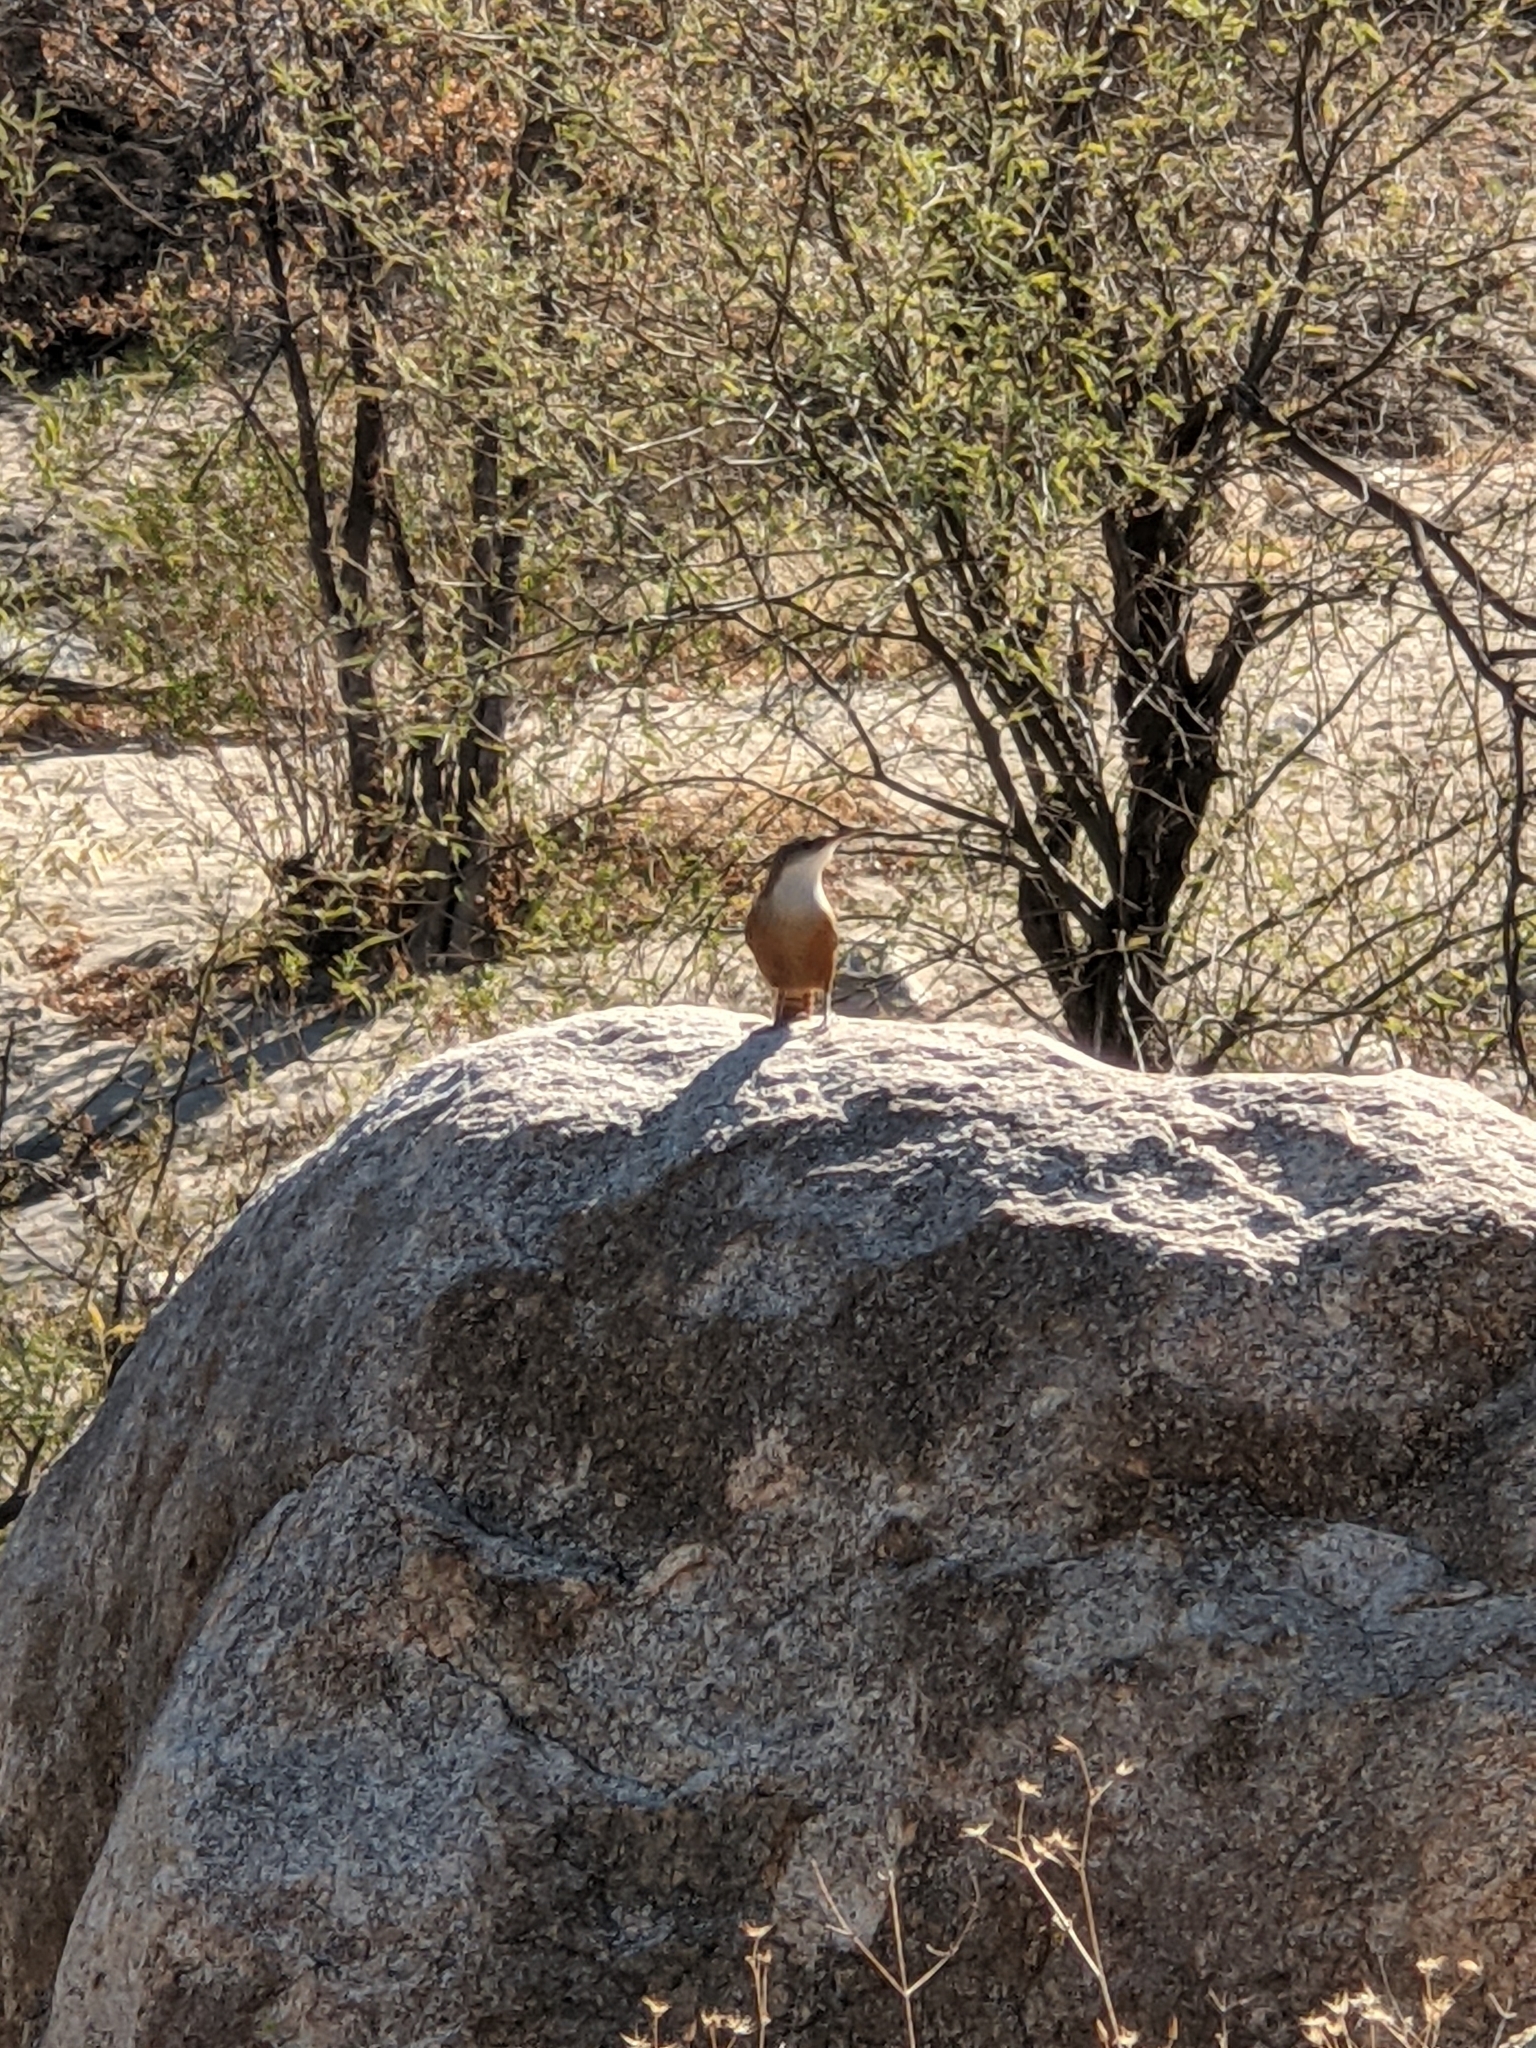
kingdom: Animalia
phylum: Chordata
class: Aves
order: Passeriformes
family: Troglodytidae
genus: Catherpes
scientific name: Catherpes mexicanus
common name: Canyon wren
